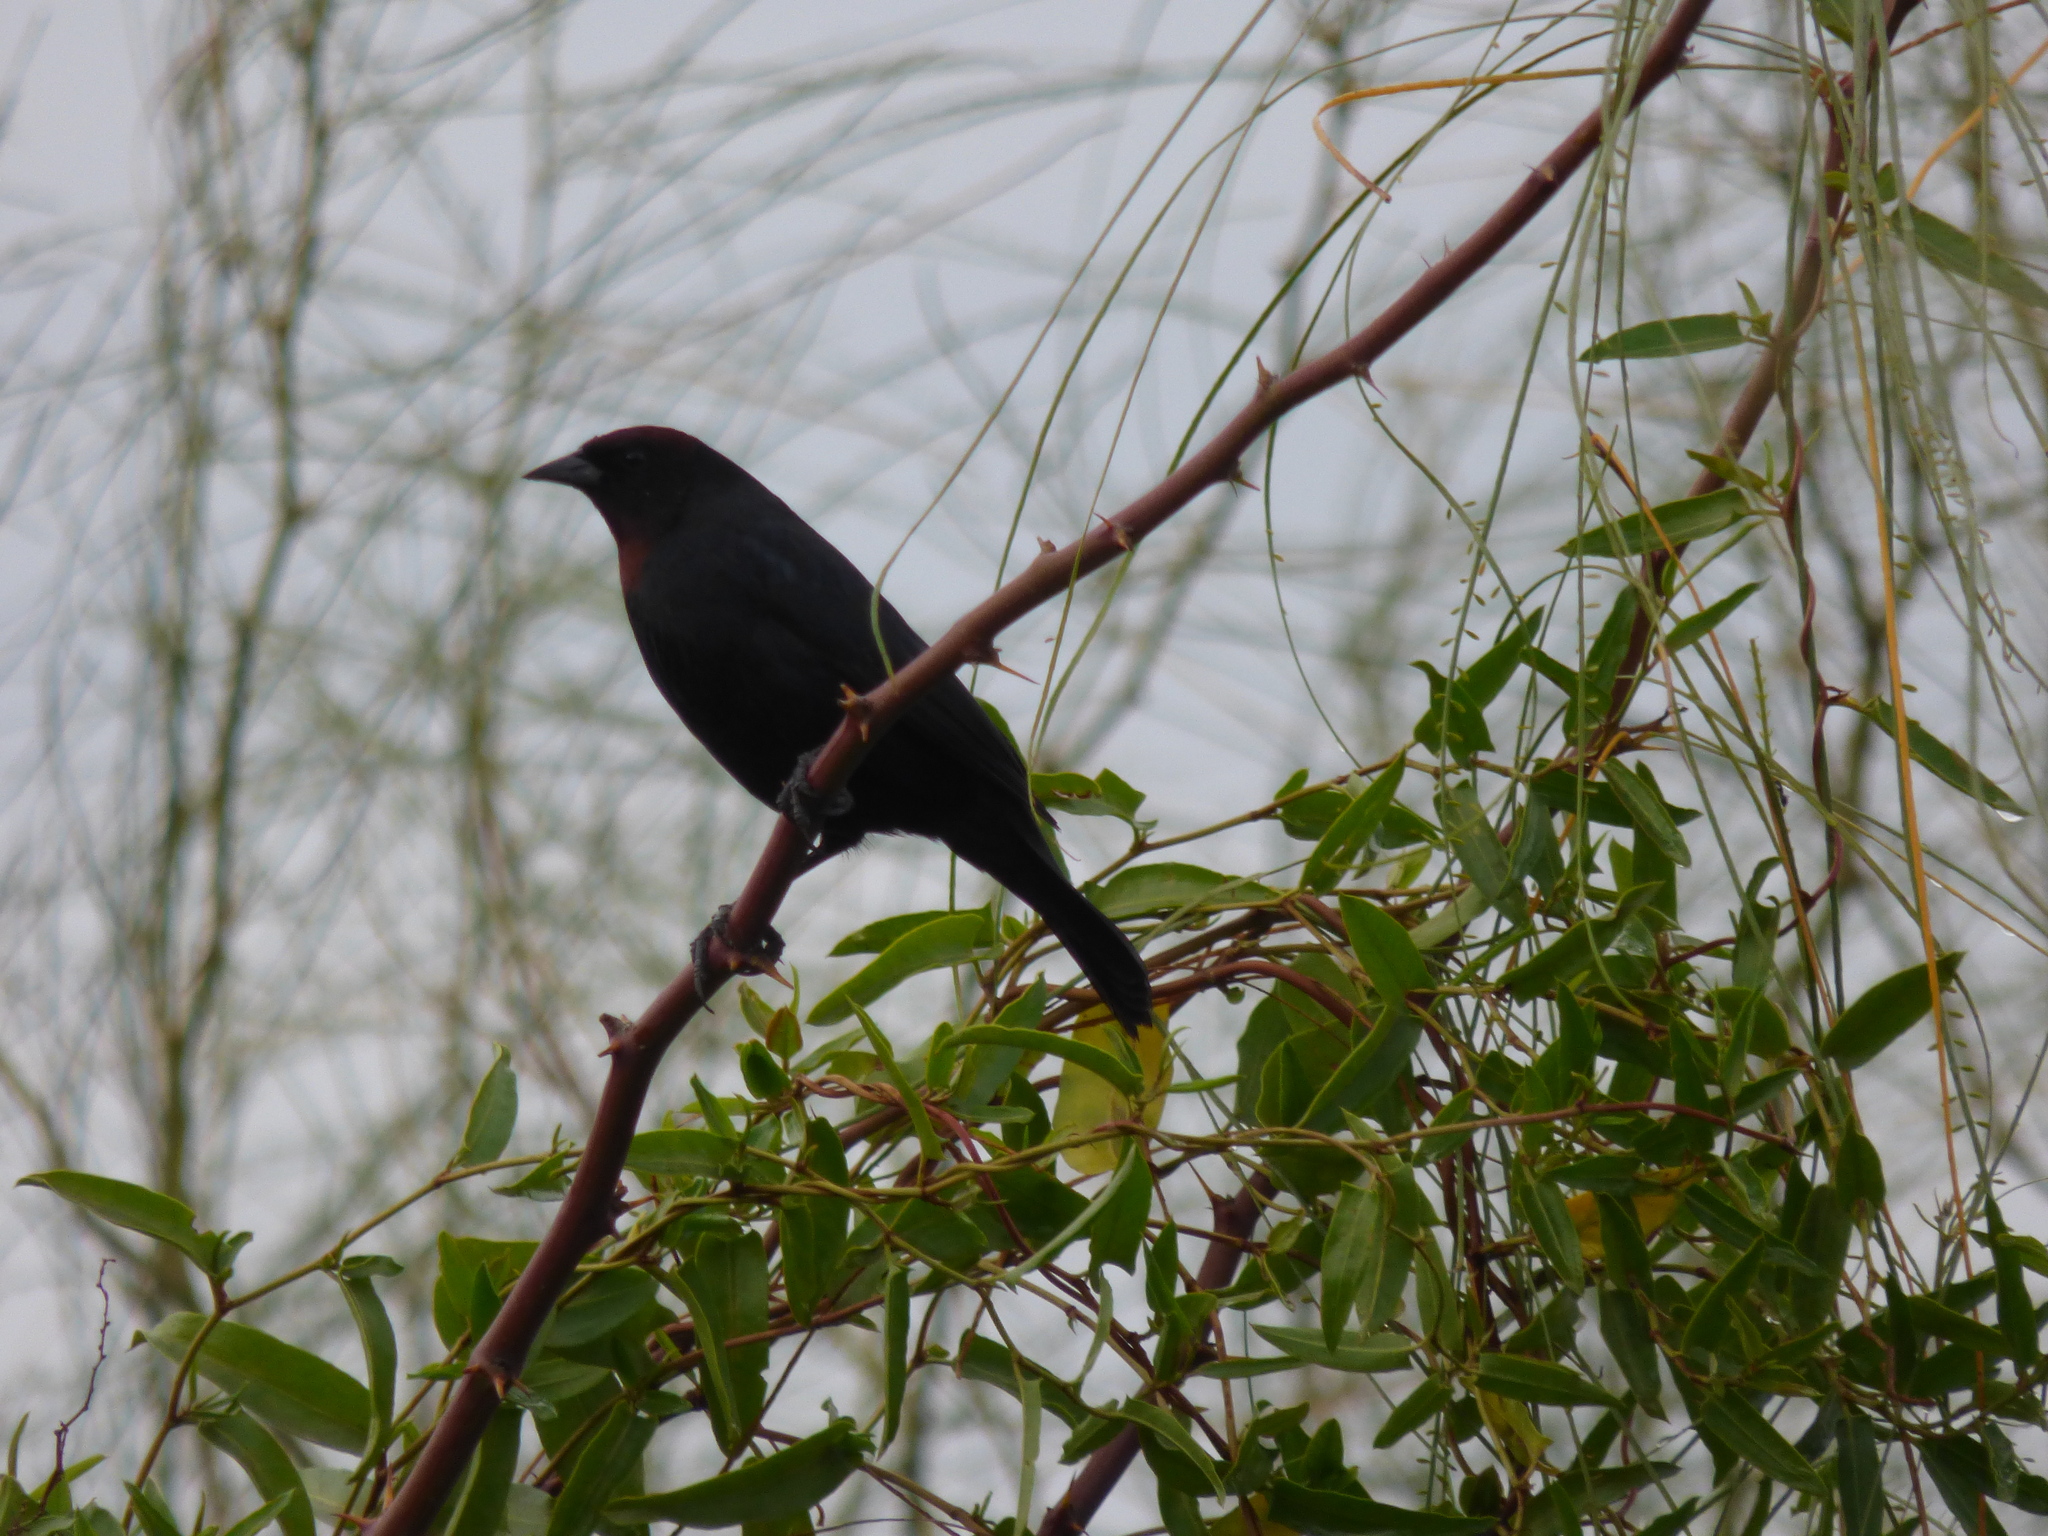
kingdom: Animalia
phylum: Chordata
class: Aves
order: Passeriformes
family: Icteridae
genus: Chrysomus
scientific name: Chrysomus ruficapillus
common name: Chestnut-capped blackbird
